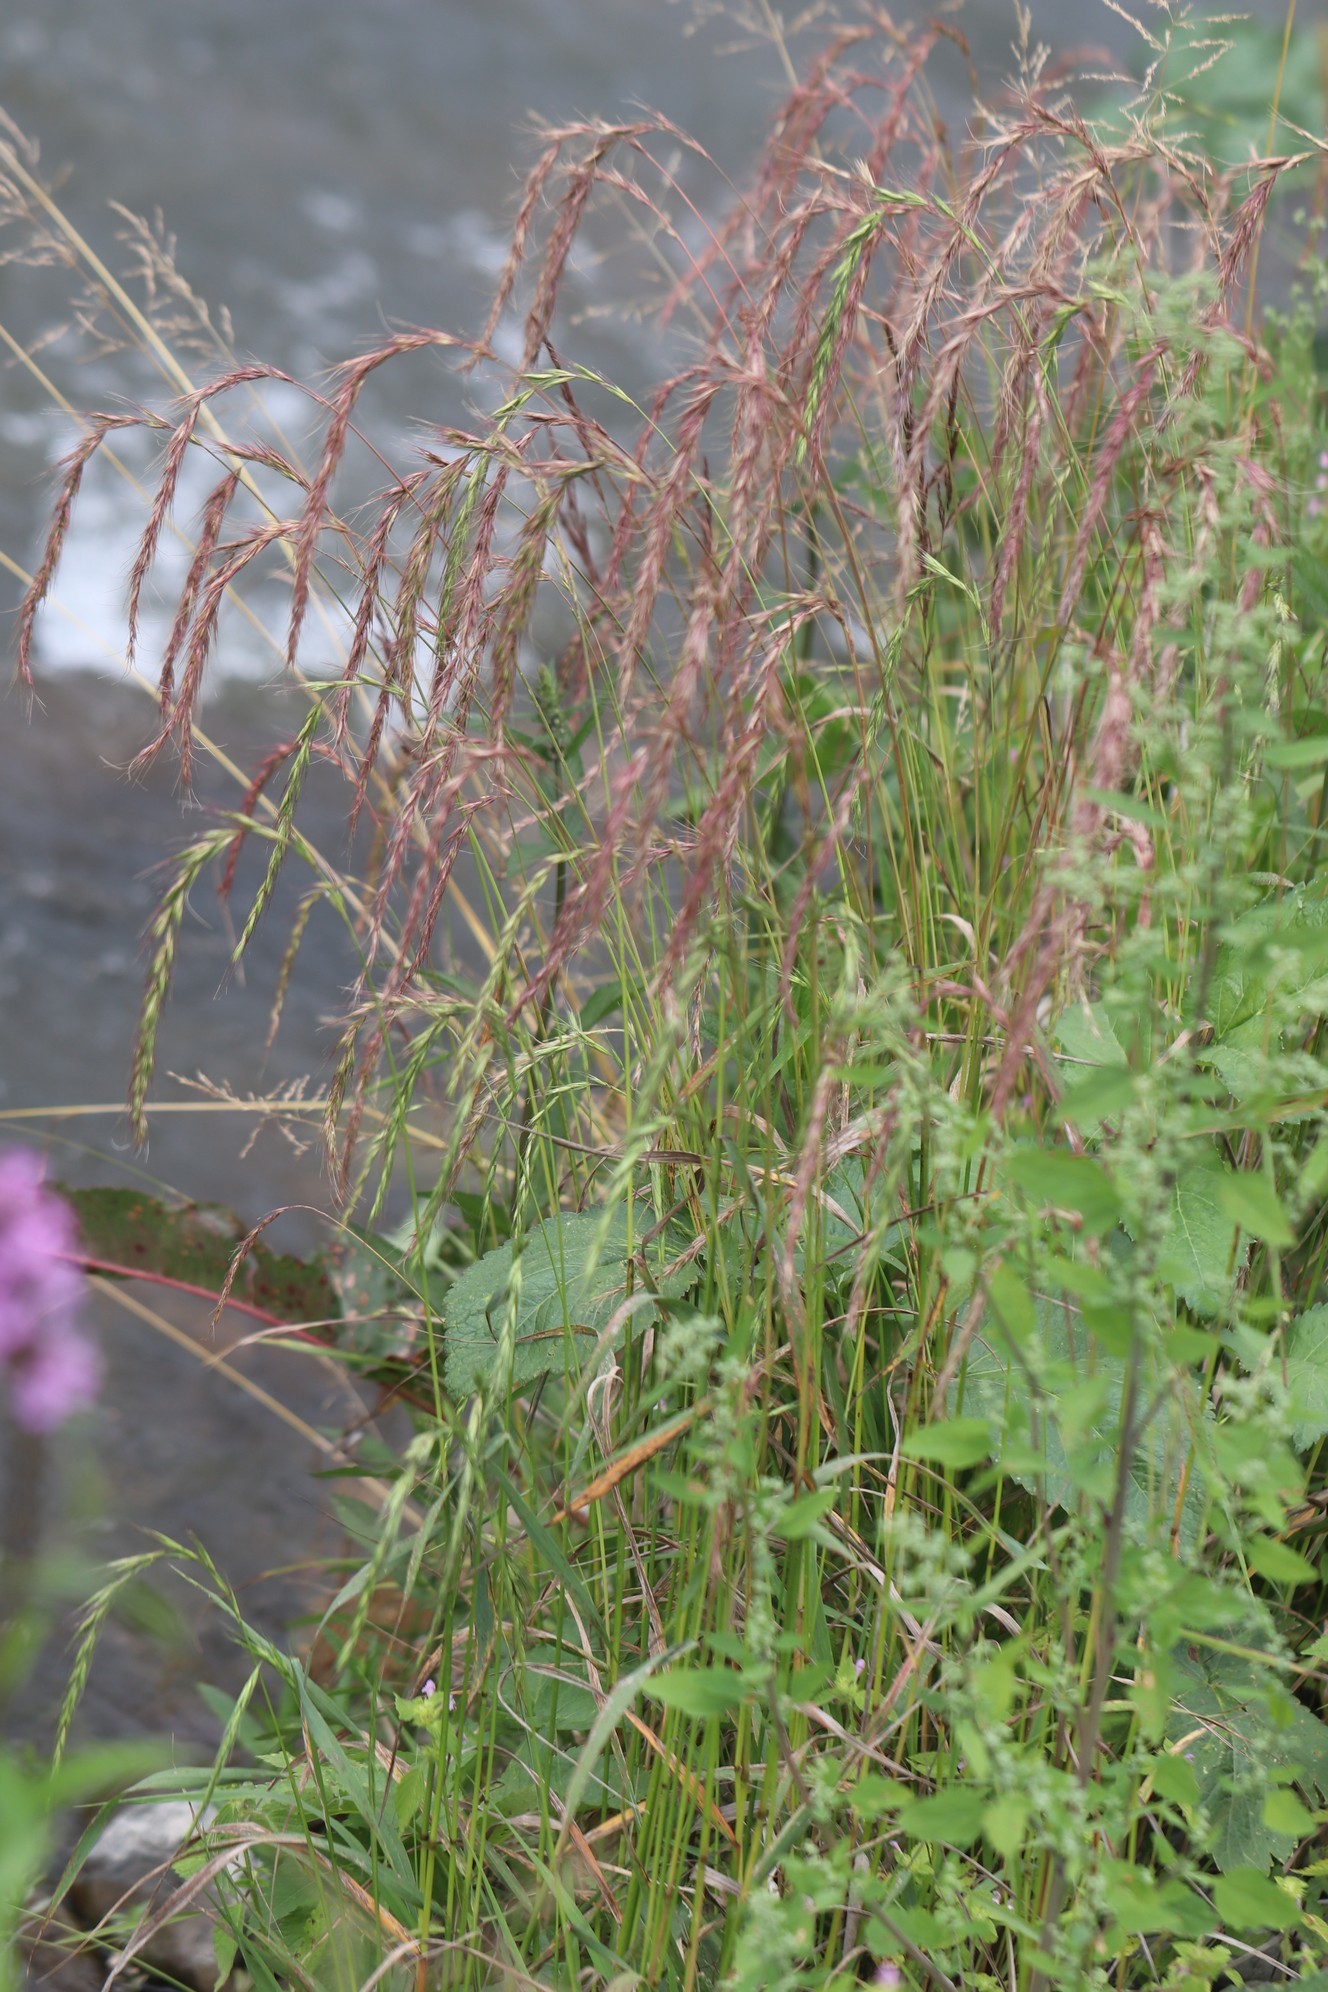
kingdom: Plantae
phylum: Tracheophyta
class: Liliopsida
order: Poales
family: Poaceae
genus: Elymus
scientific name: Elymus sibiricus
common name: Siberian wildrye
